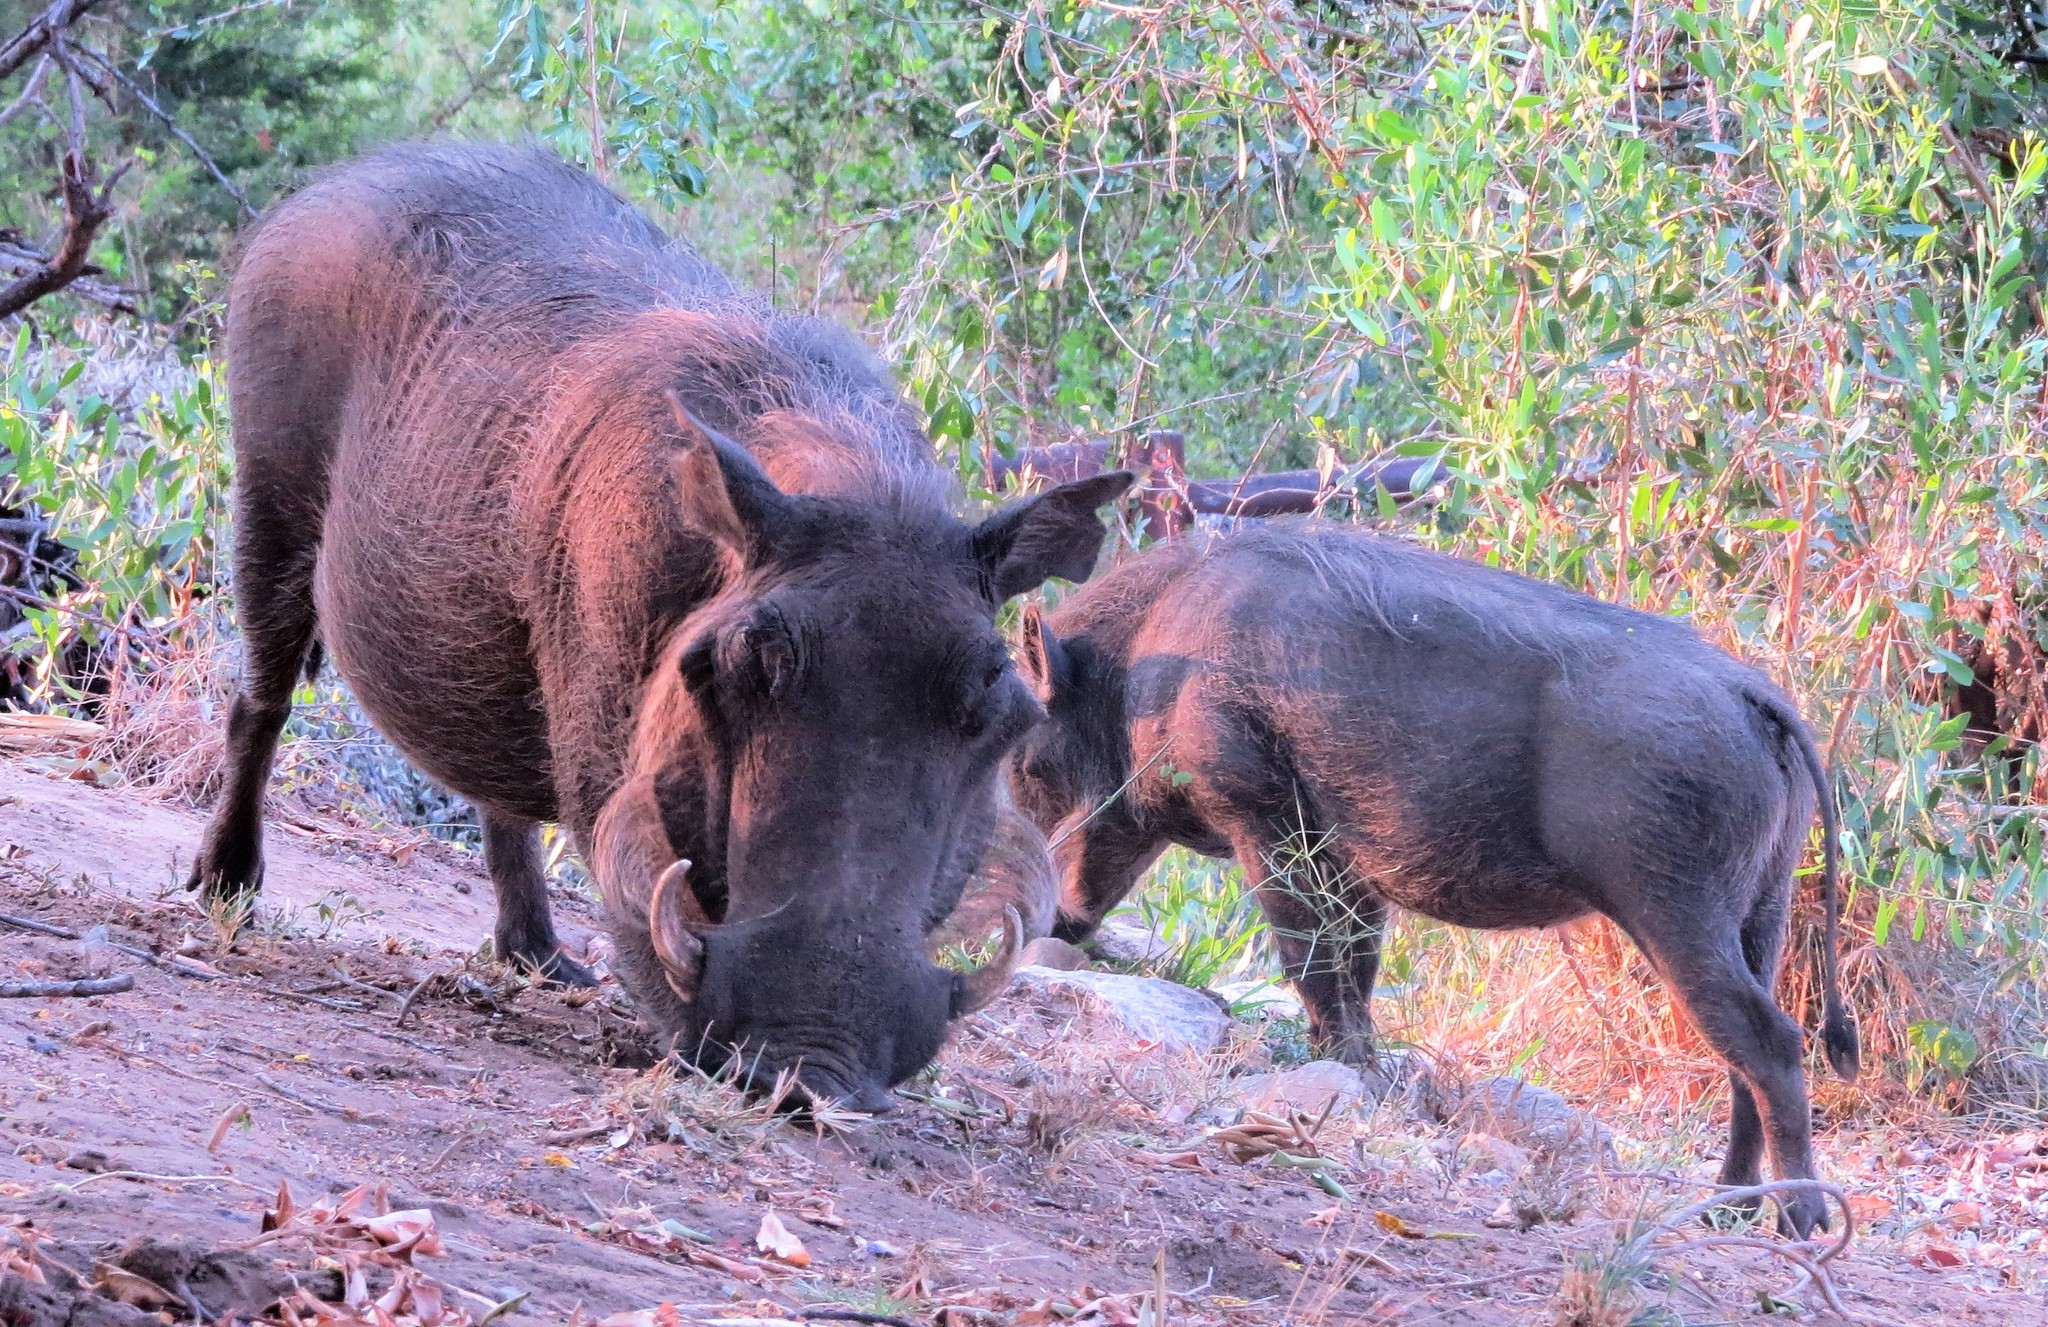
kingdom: Animalia
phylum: Chordata
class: Mammalia
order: Artiodactyla
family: Suidae
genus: Phacochoerus
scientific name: Phacochoerus africanus
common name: Common warthog
